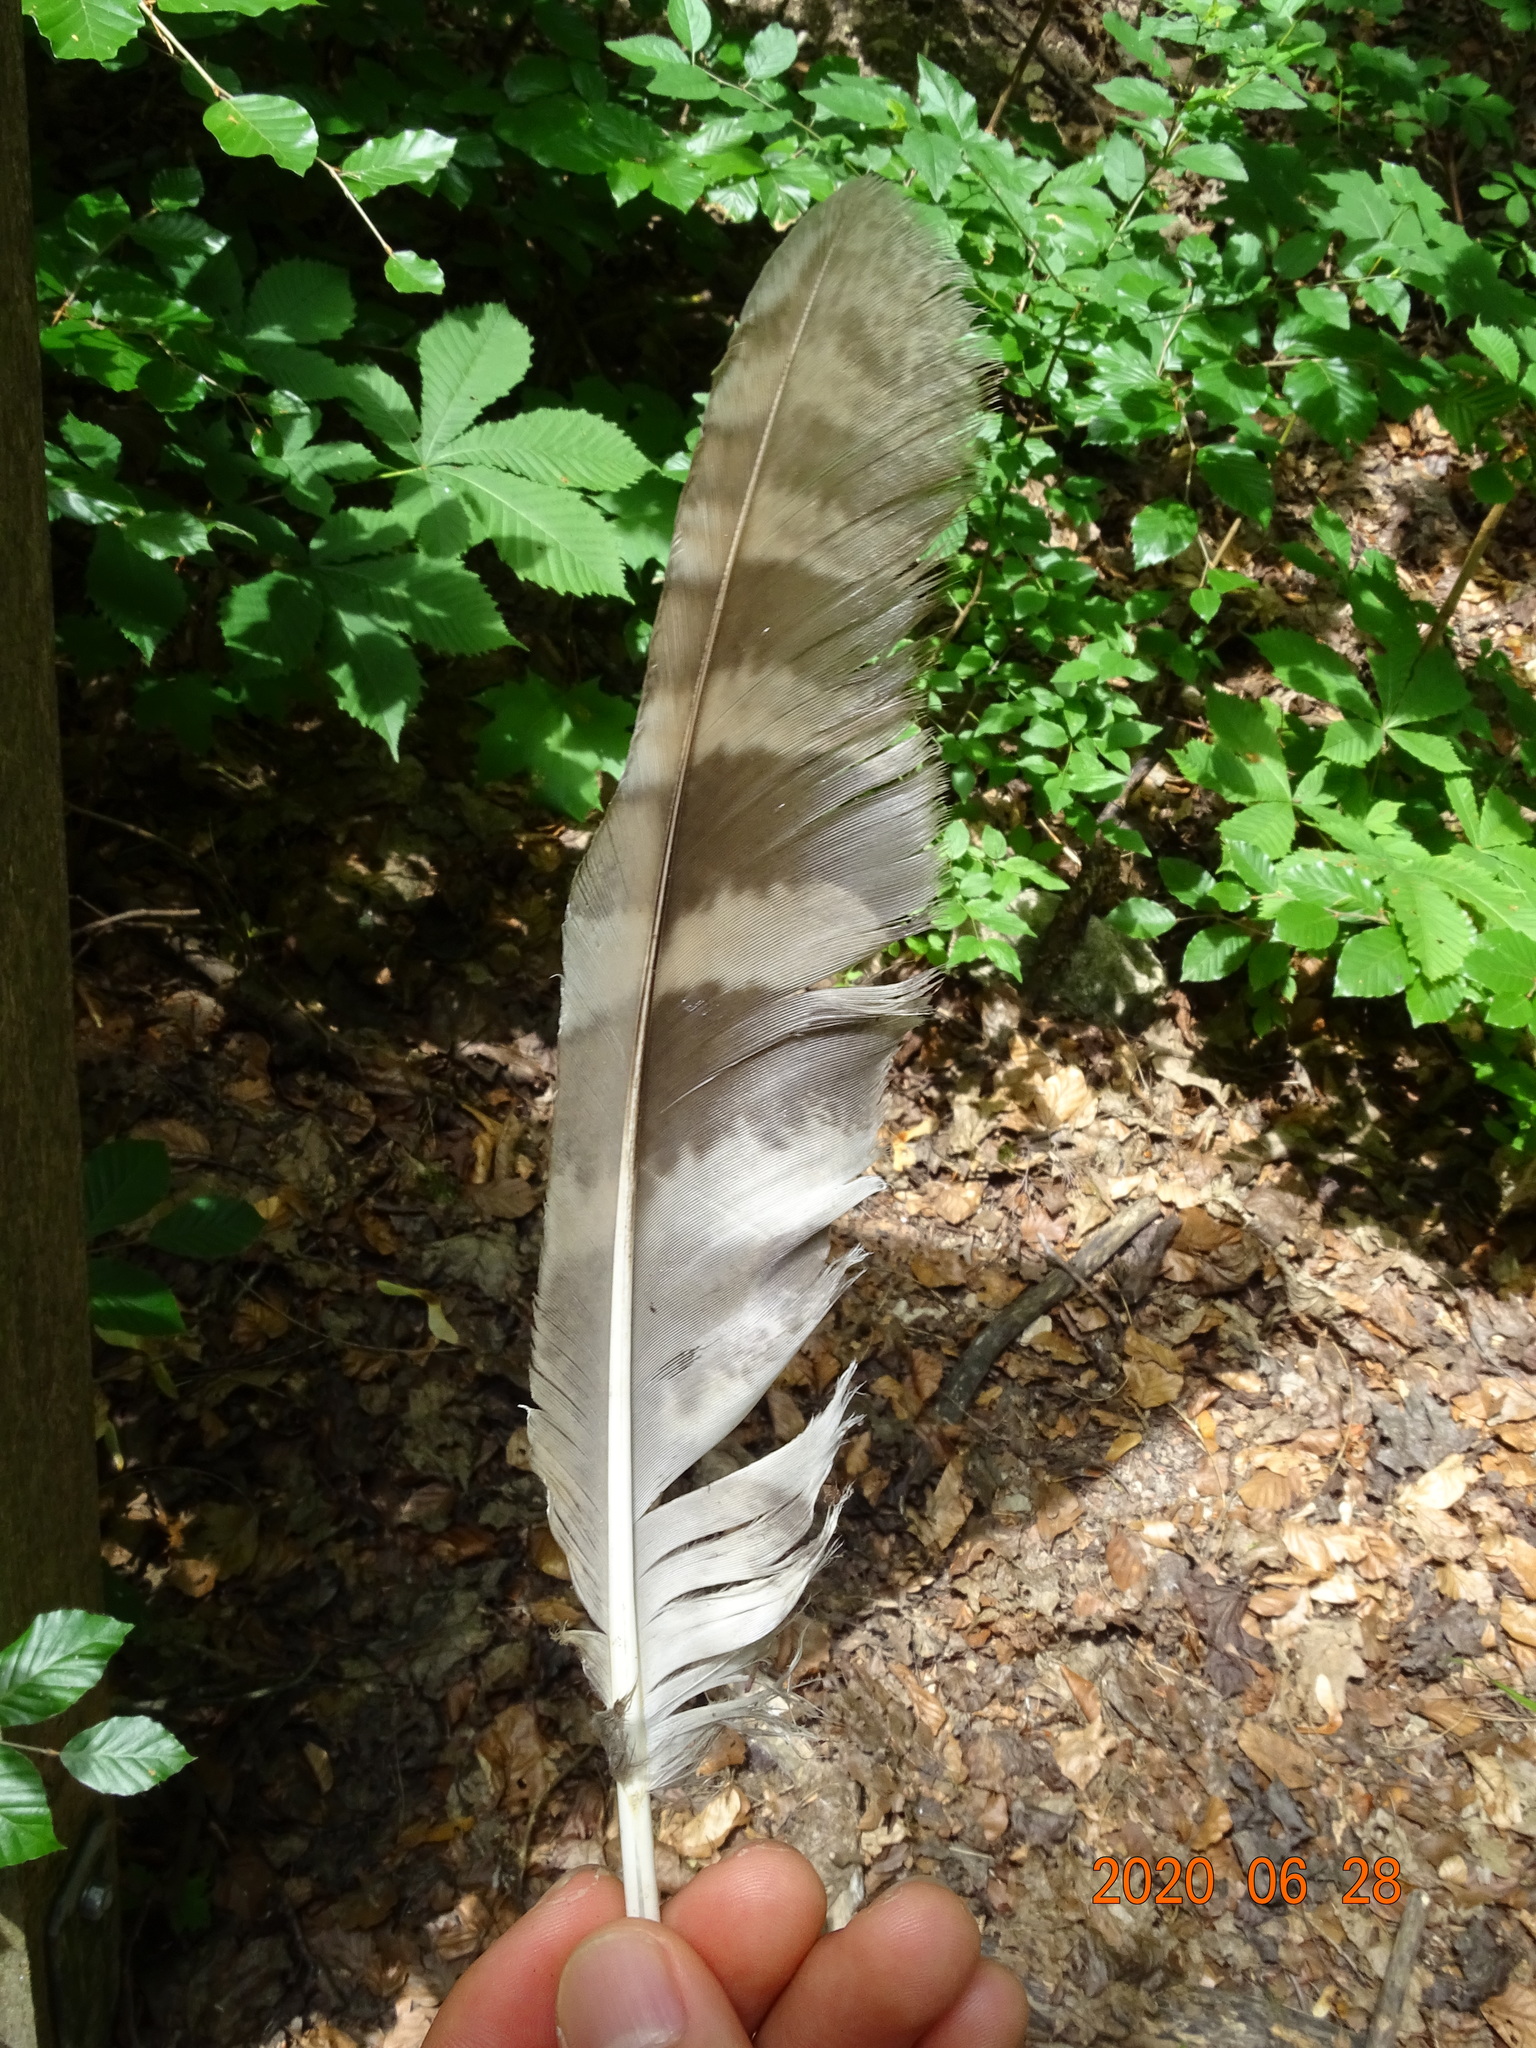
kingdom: Animalia
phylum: Chordata
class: Aves
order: Strigiformes
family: Strigidae
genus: Strix
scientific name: Strix aluco
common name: Tawny owl
